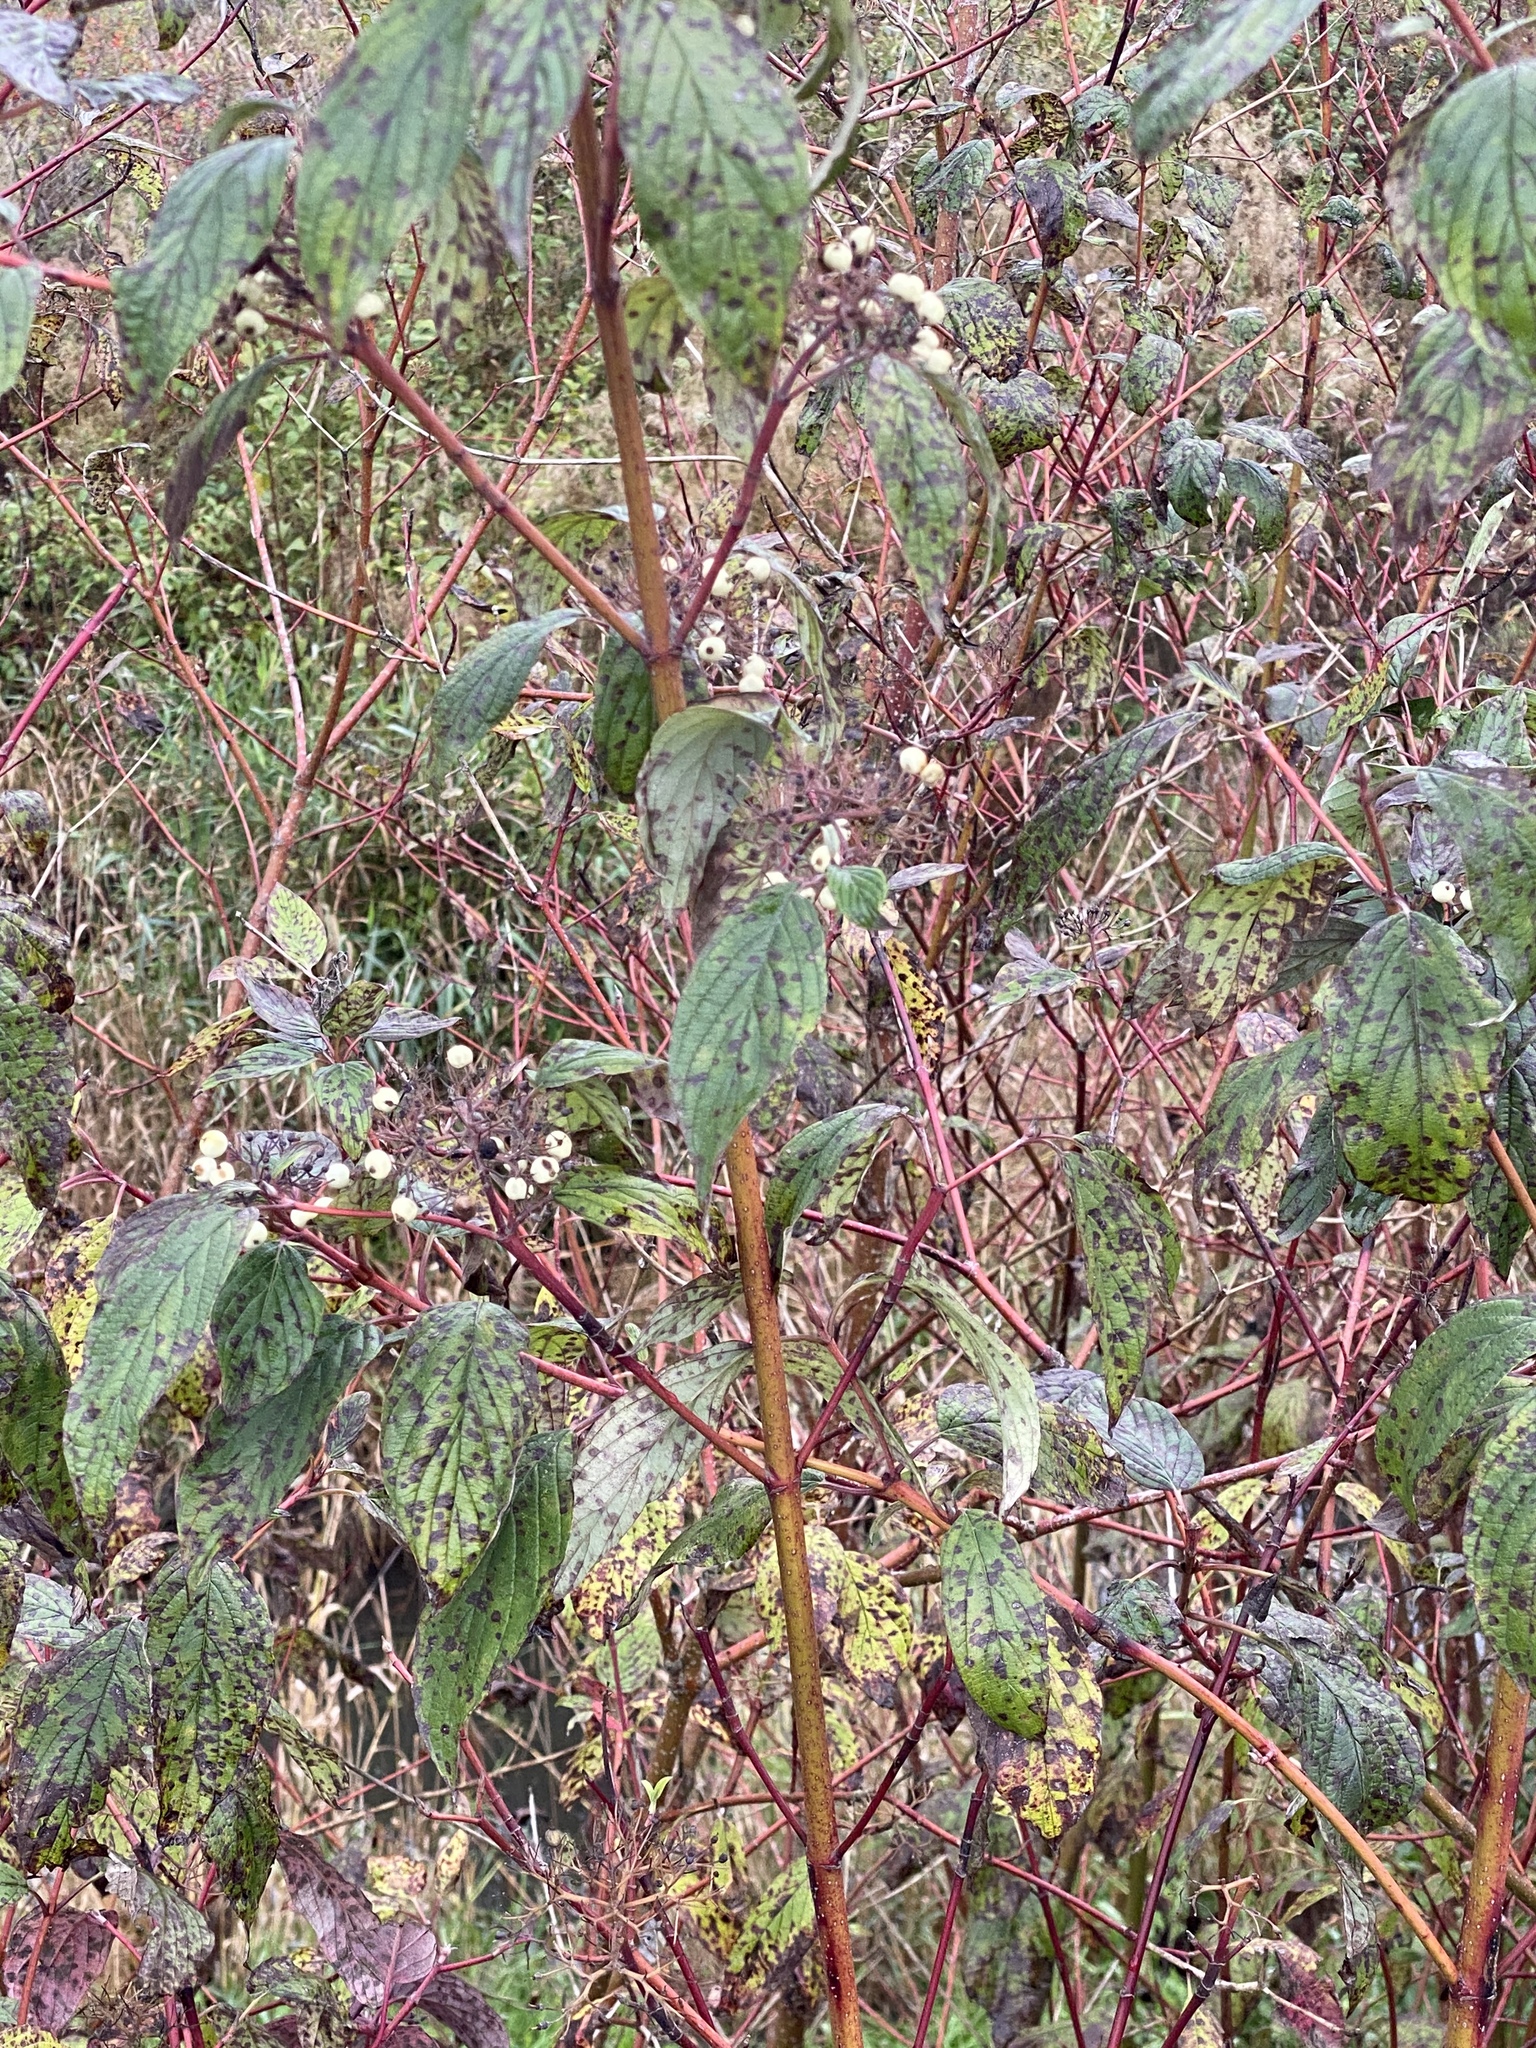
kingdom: Plantae
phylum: Tracheophyta
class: Magnoliopsida
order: Cornales
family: Cornaceae
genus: Cornus
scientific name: Cornus sericea
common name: Red-osier dogwood
